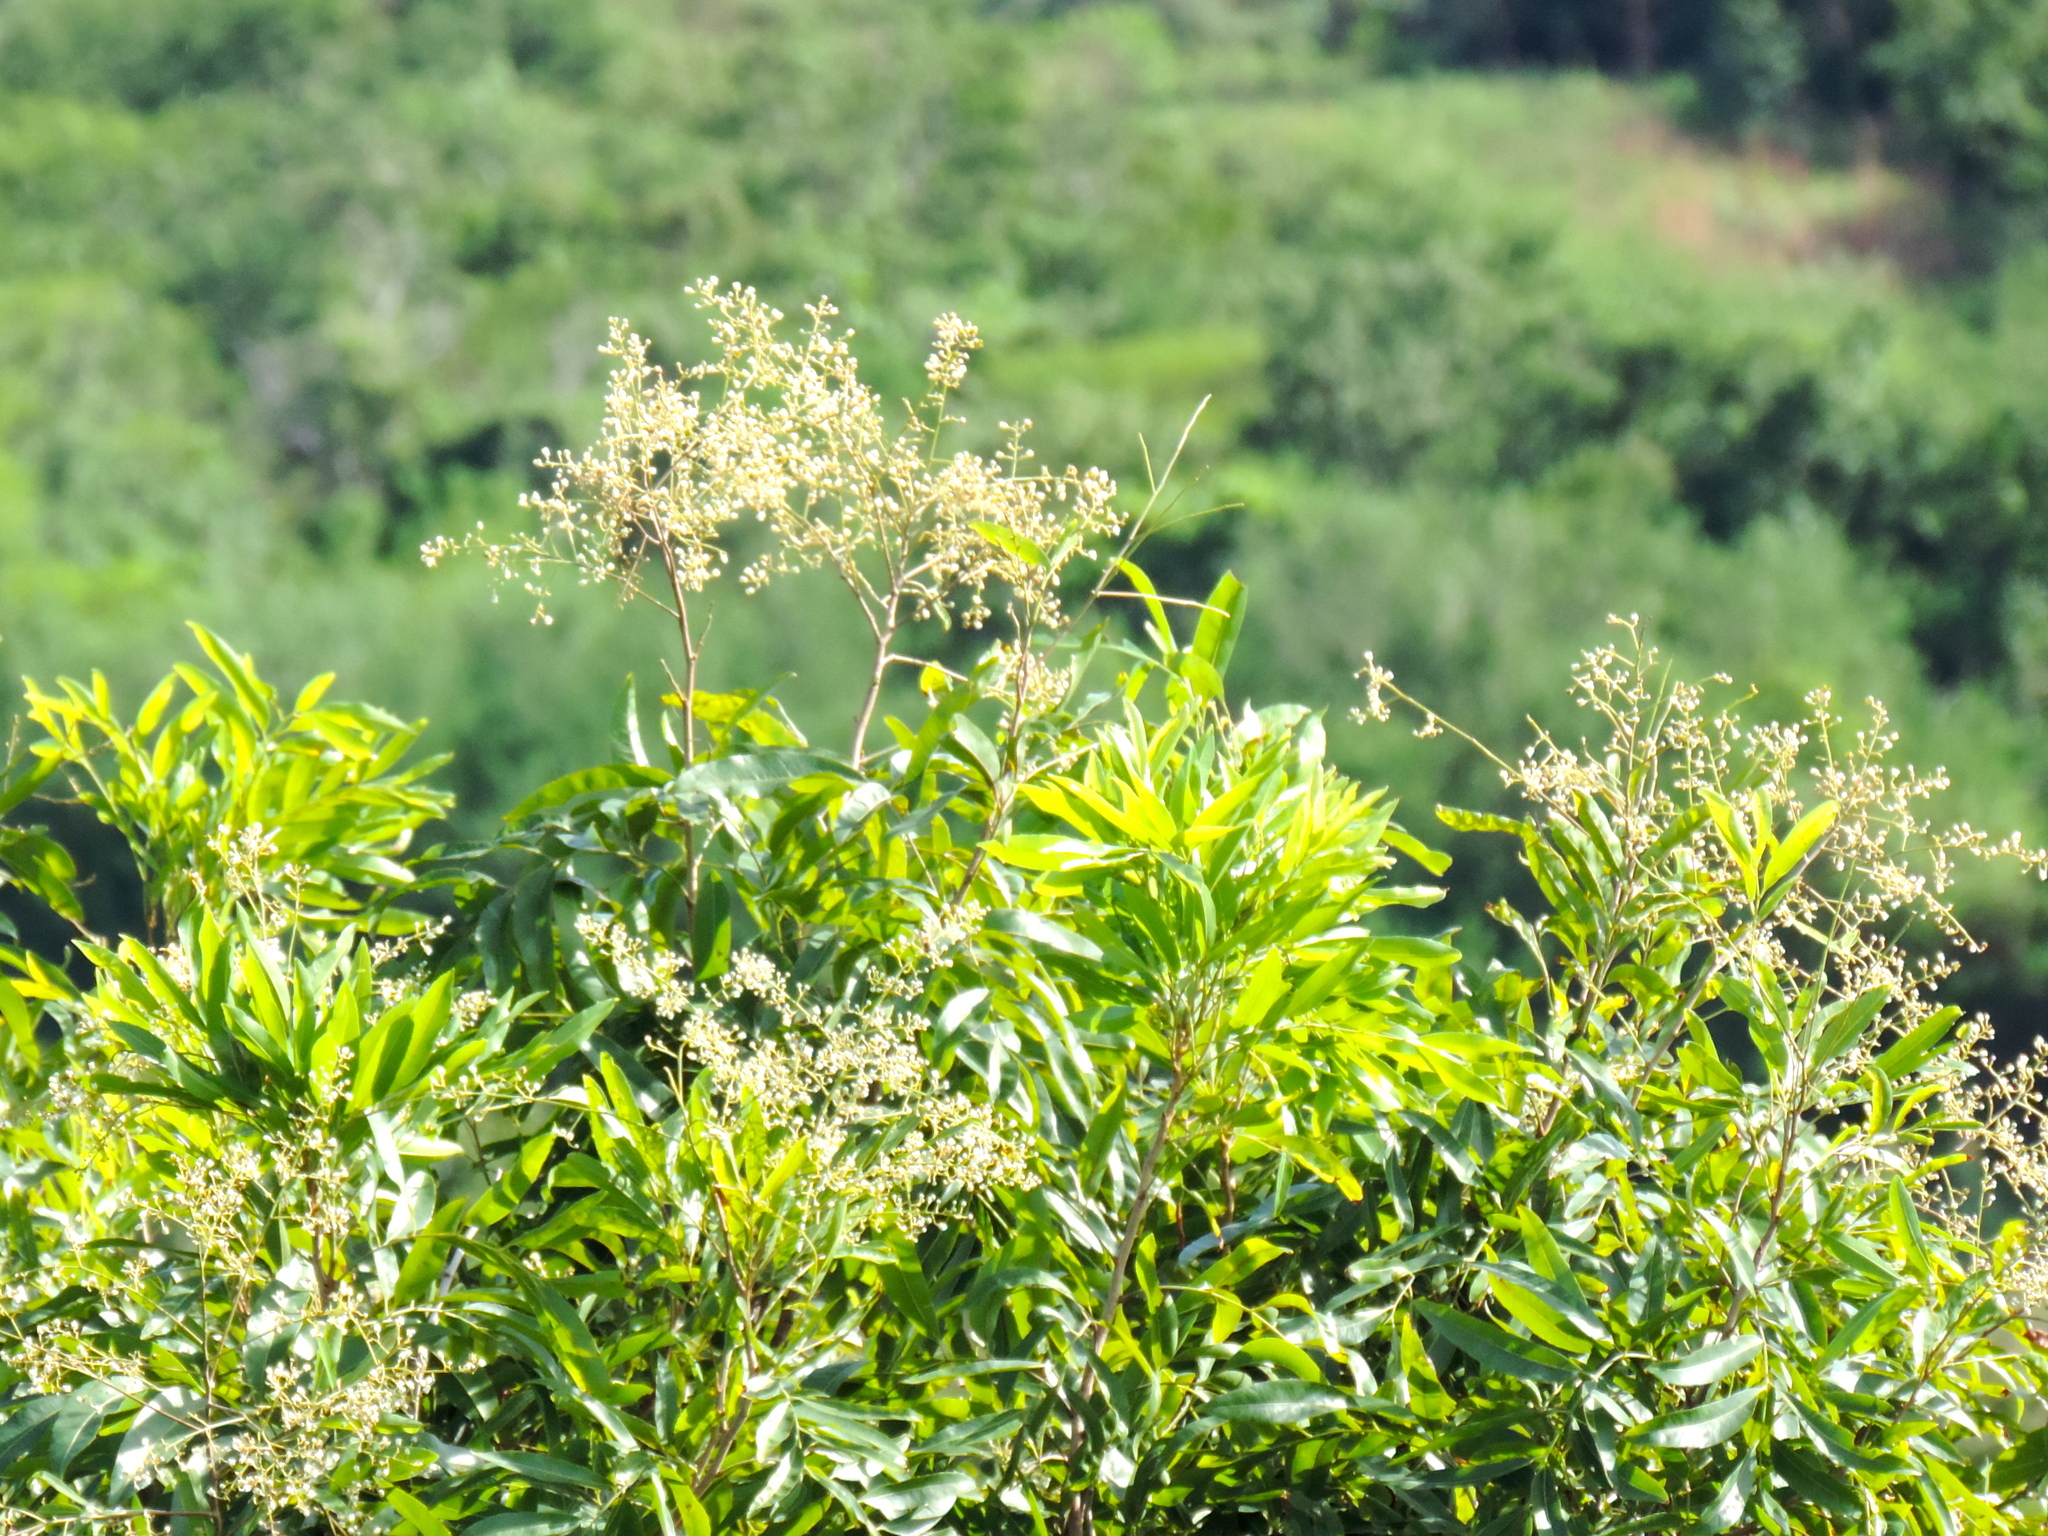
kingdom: Plantae
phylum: Tracheophyta
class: Magnoliopsida
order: Sapindales
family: Sapindaceae
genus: Thouinidium
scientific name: Thouinidium decandrum
